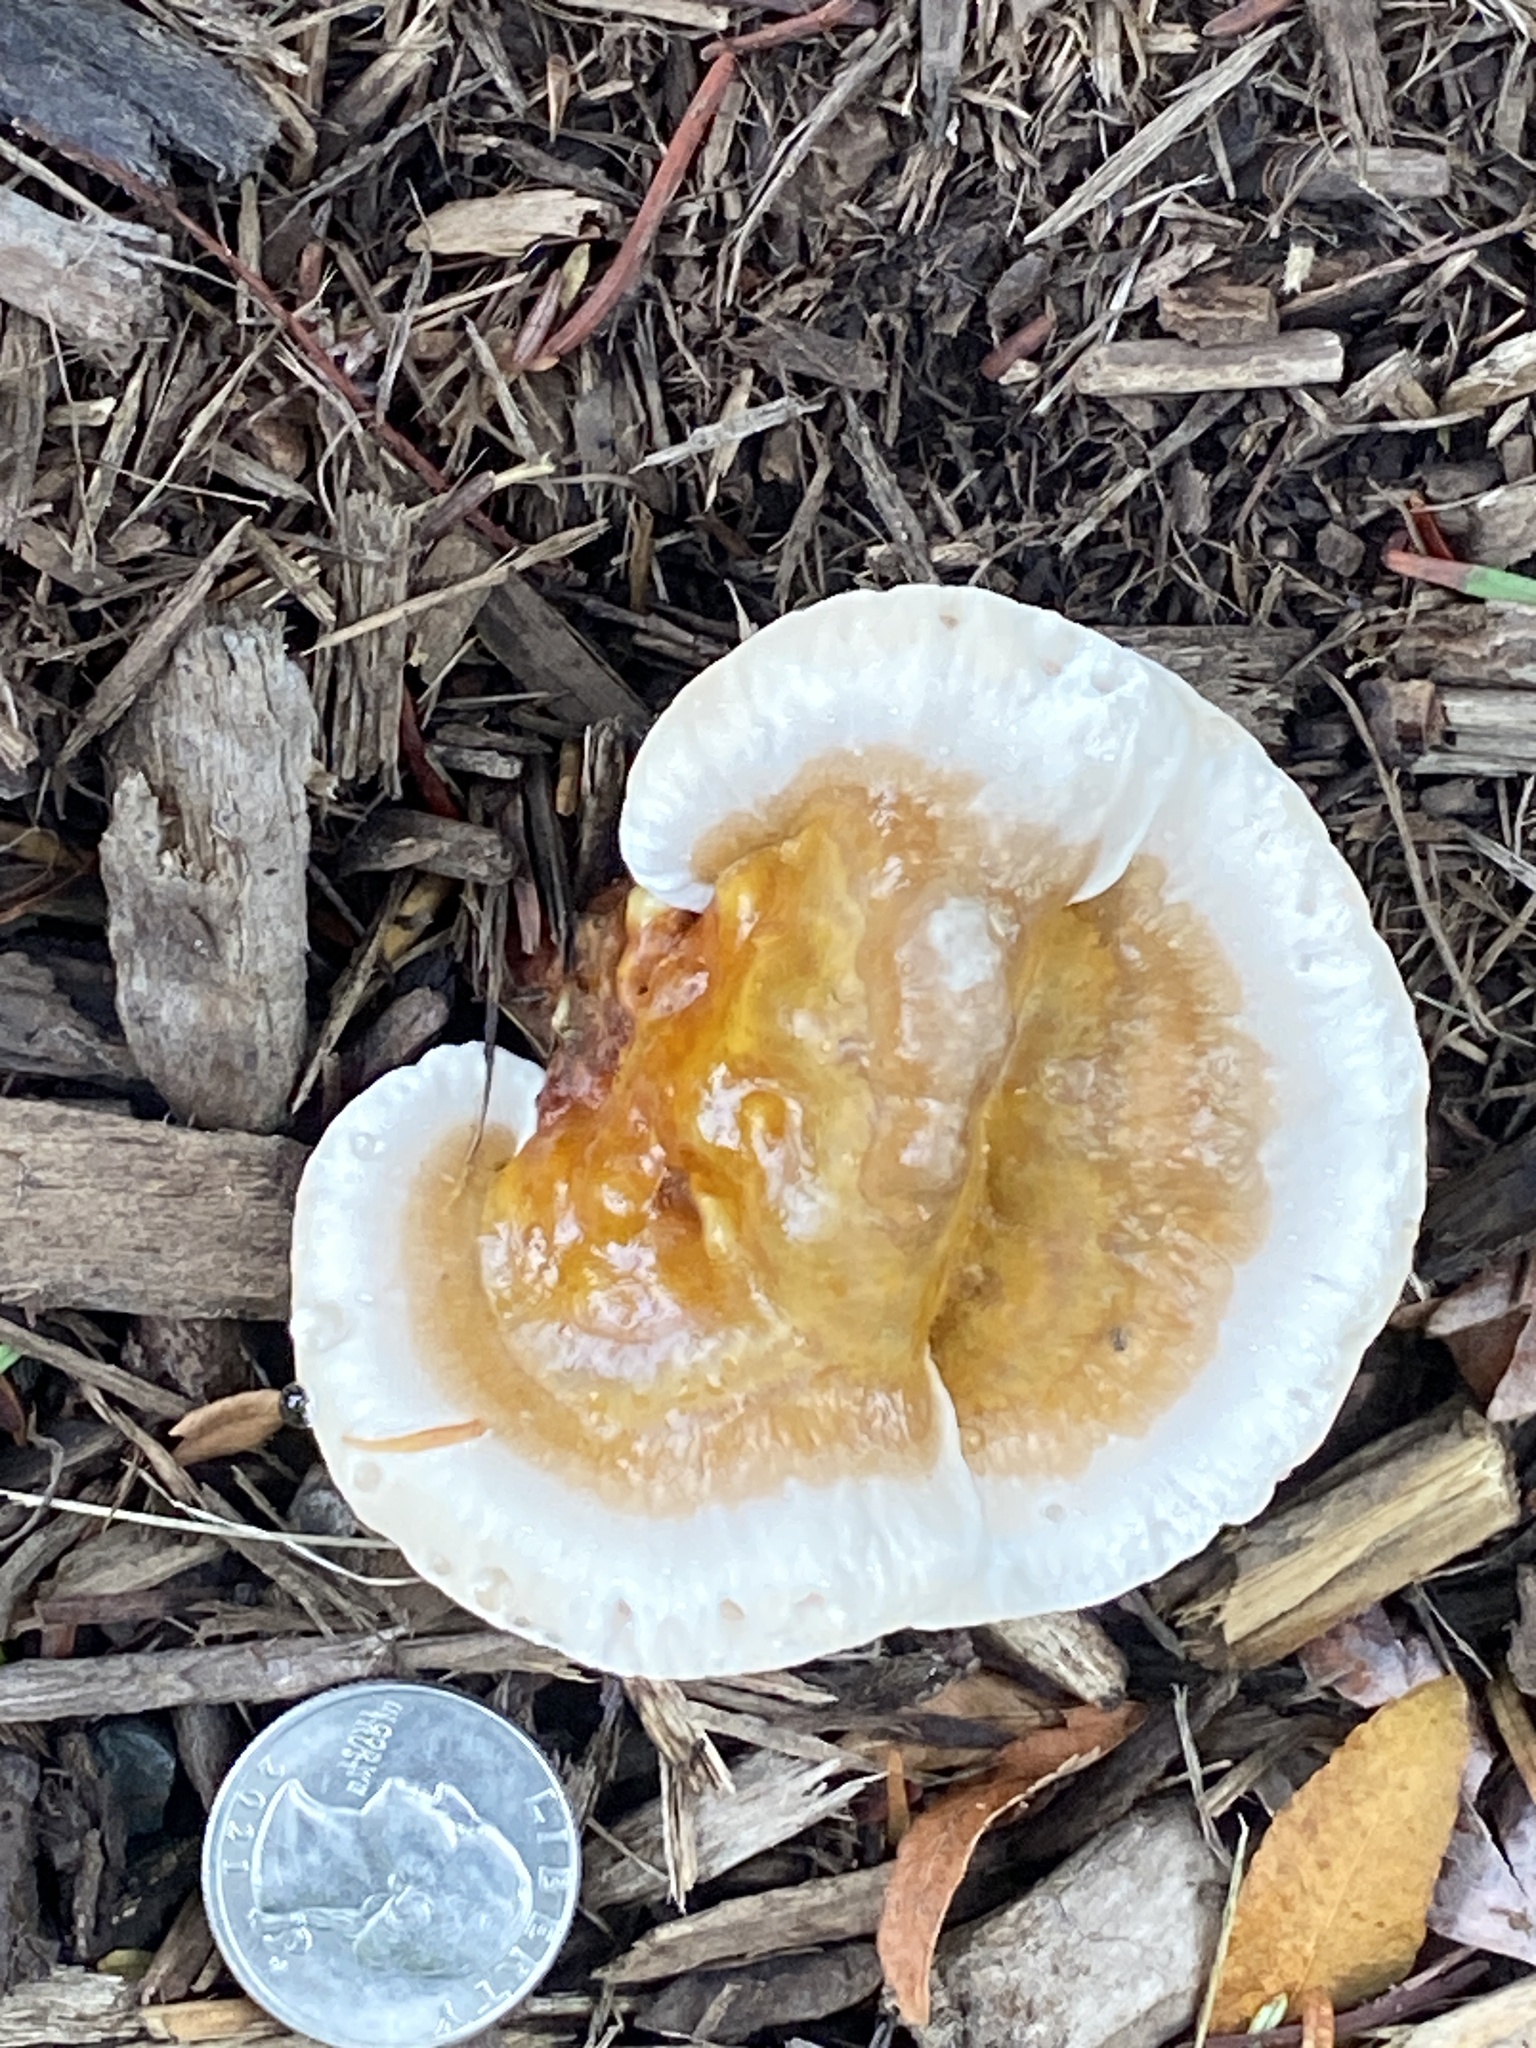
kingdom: Fungi
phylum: Basidiomycota
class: Agaricomycetes
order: Polyporales
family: Polyporaceae
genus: Ganoderma
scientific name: Ganoderma curtisii
